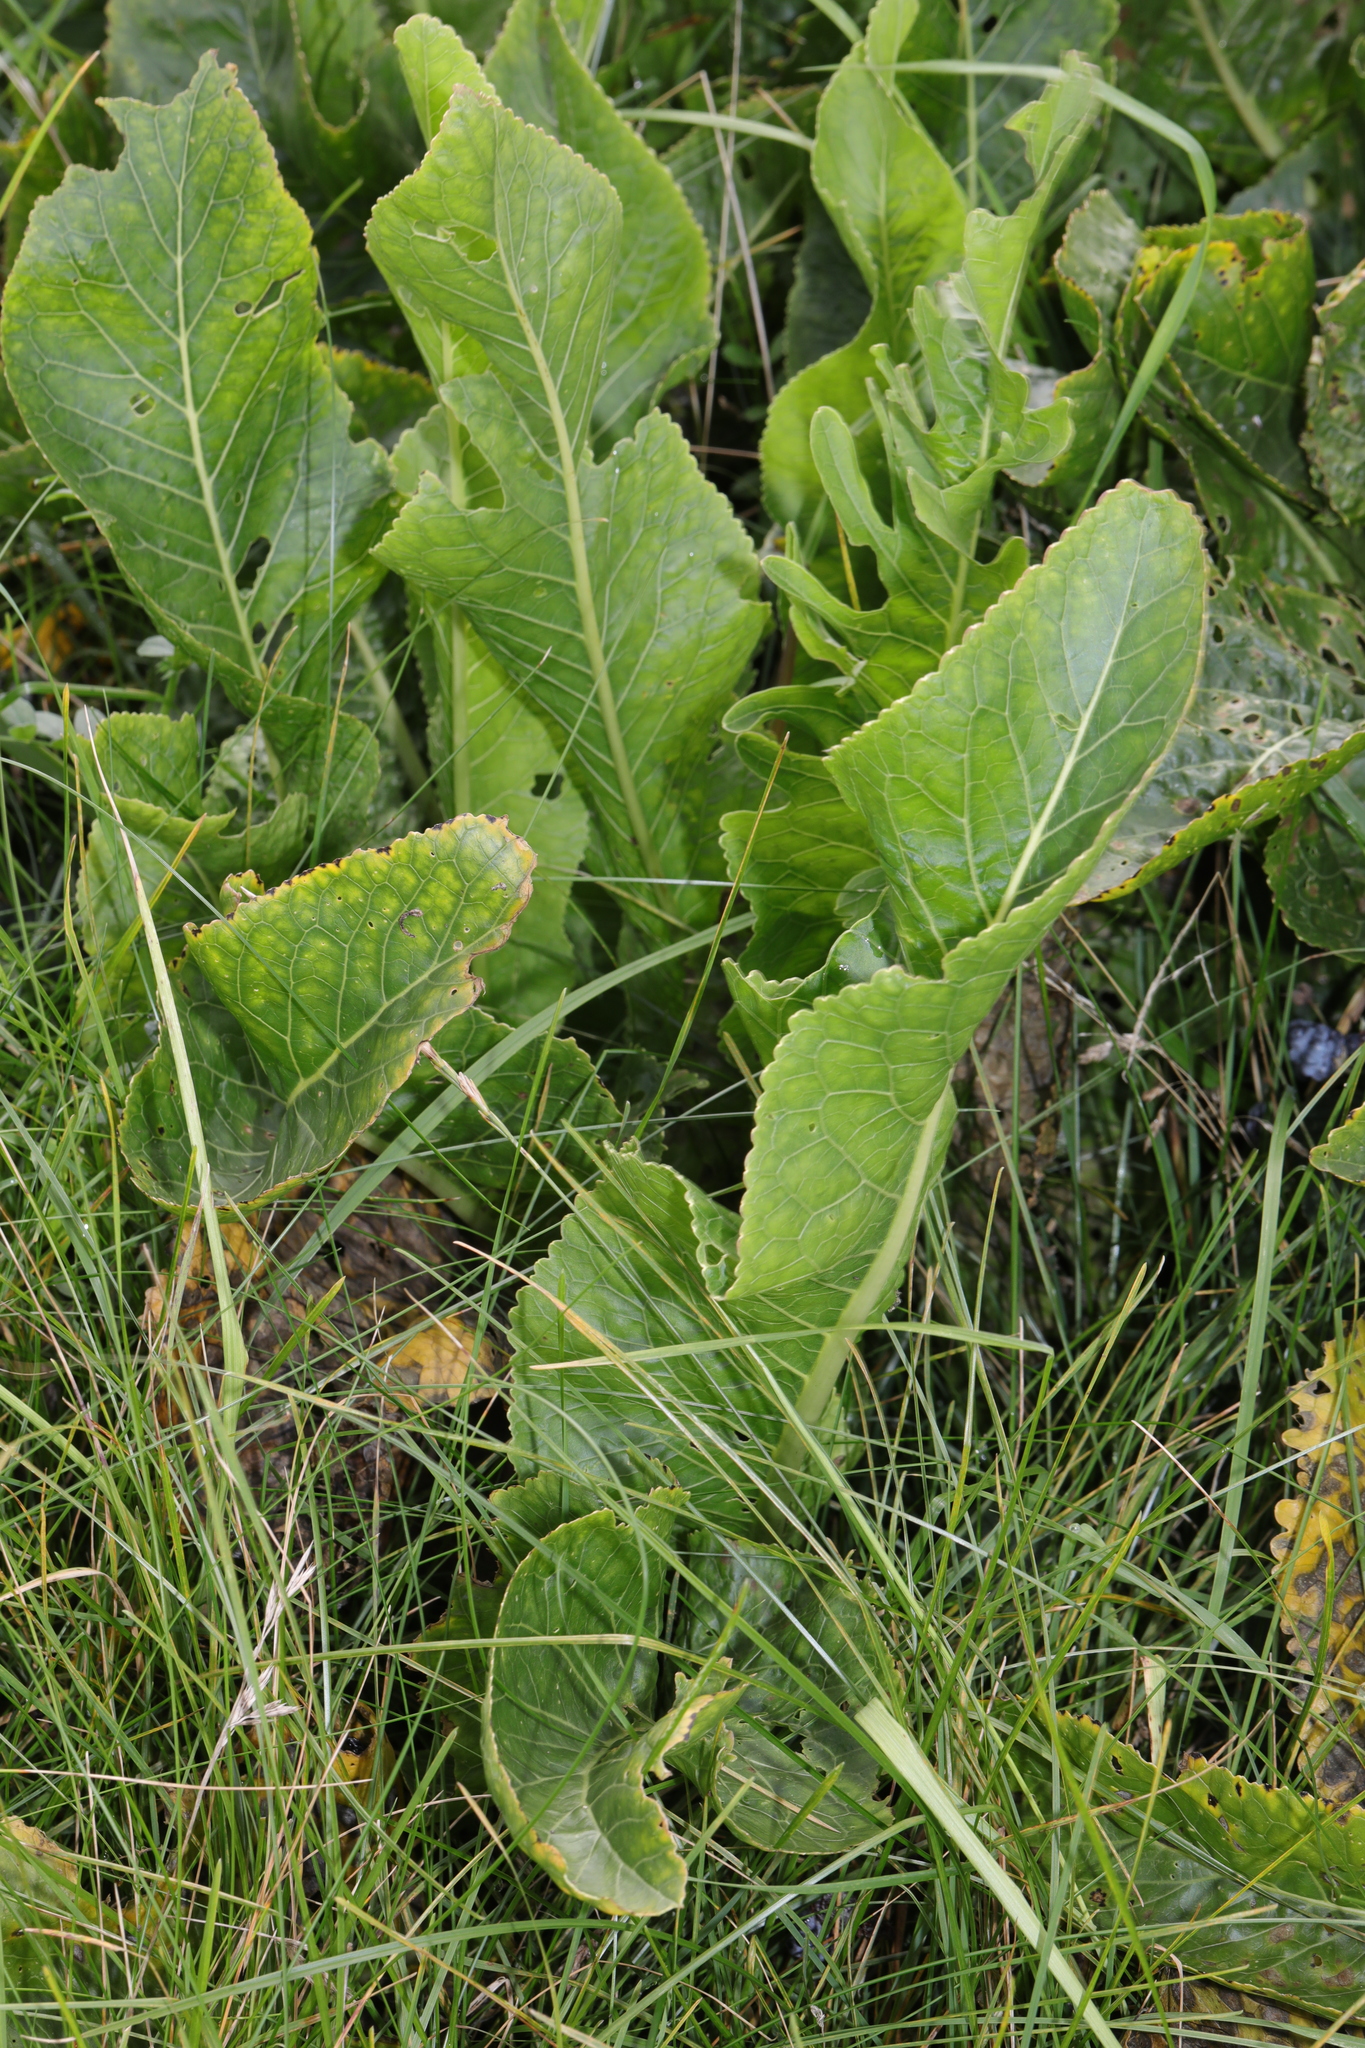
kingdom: Plantae
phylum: Tracheophyta
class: Magnoliopsida
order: Brassicales
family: Brassicaceae
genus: Armoracia
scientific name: Armoracia rusticana
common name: Horseradish
